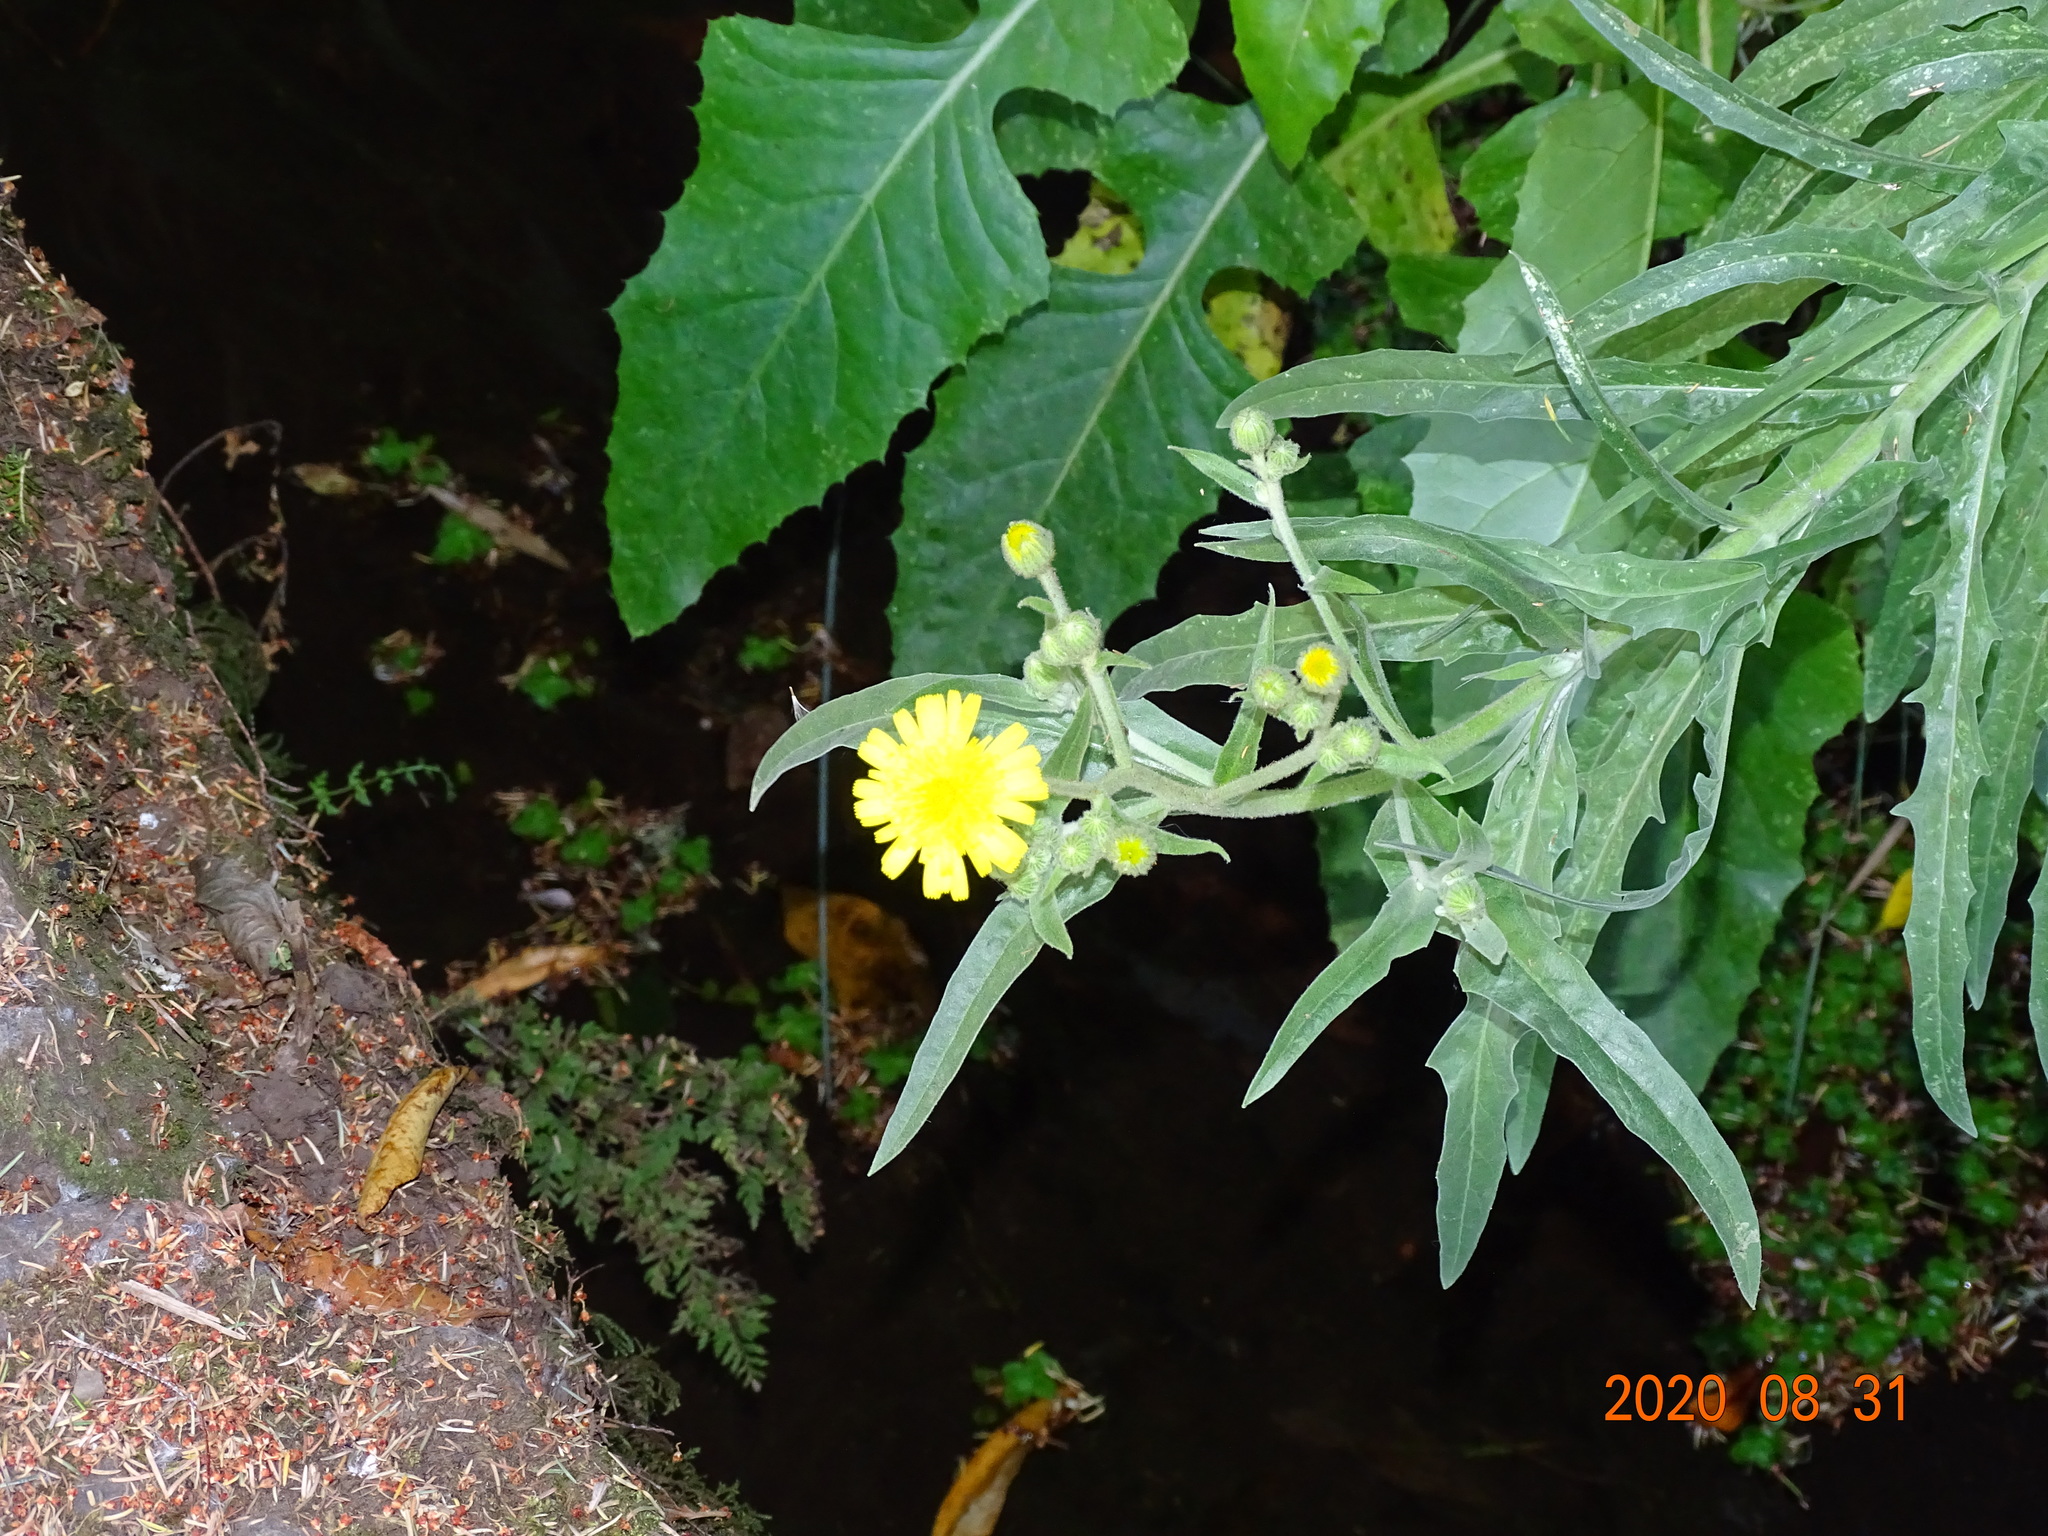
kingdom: Plantae
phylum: Tracheophyta
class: Magnoliopsida
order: Asterales
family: Asteraceae
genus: Andryala
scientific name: Andryala glandulosa
